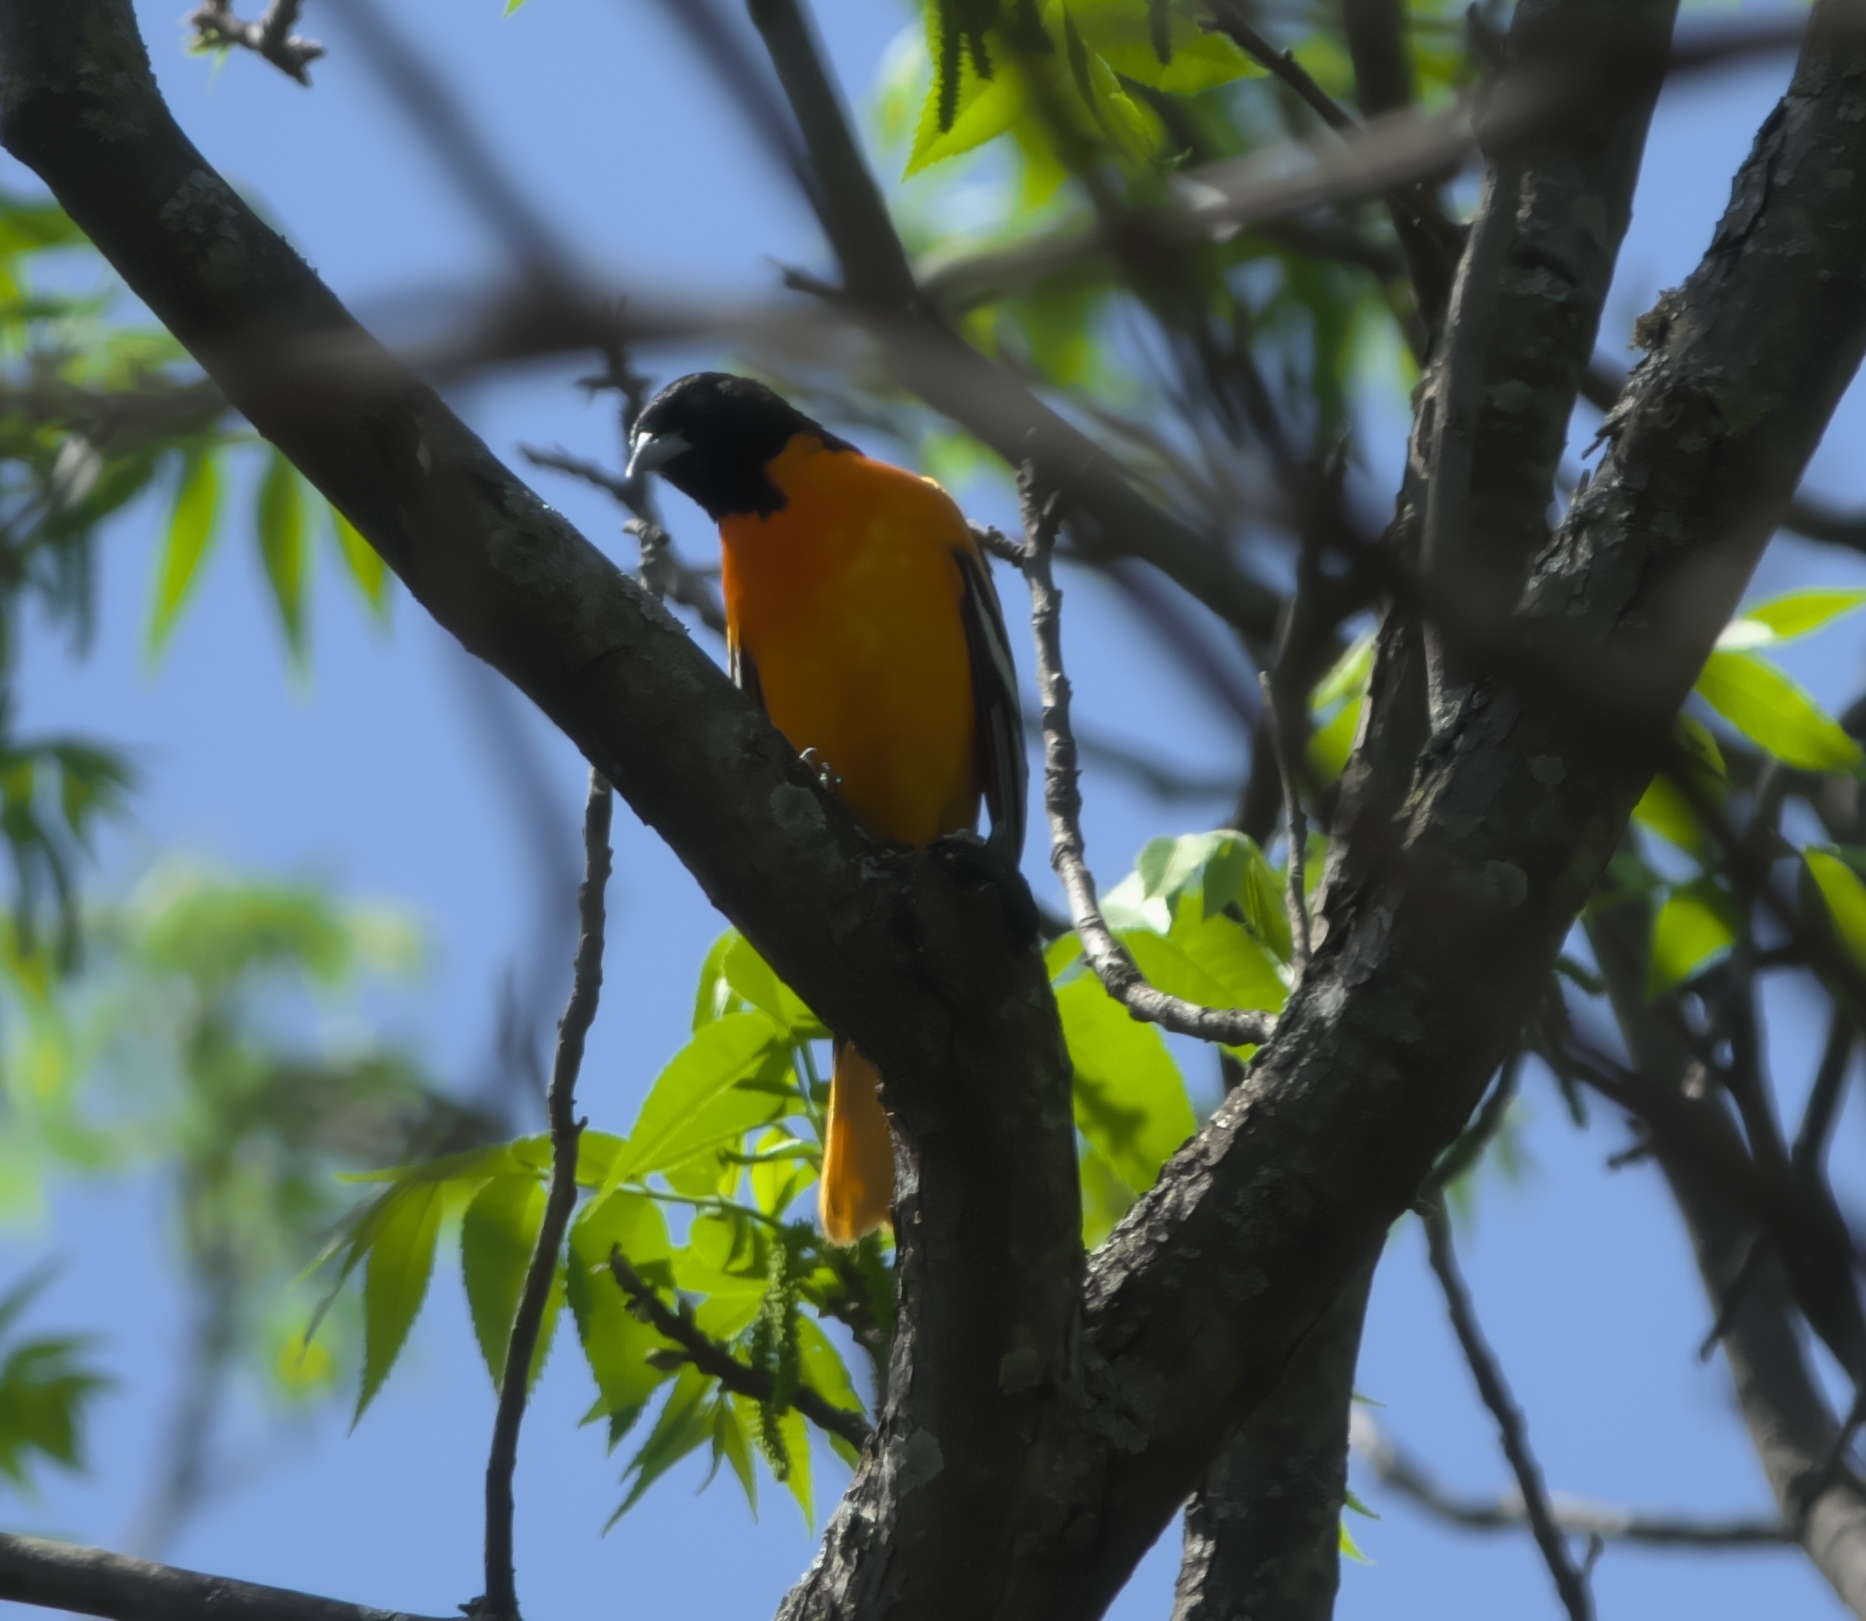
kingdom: Animalia
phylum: Chordata
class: Aves
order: Passeriformes
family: Icteridae
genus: Icterus
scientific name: Icterus galbula
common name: Baltimore oriole
